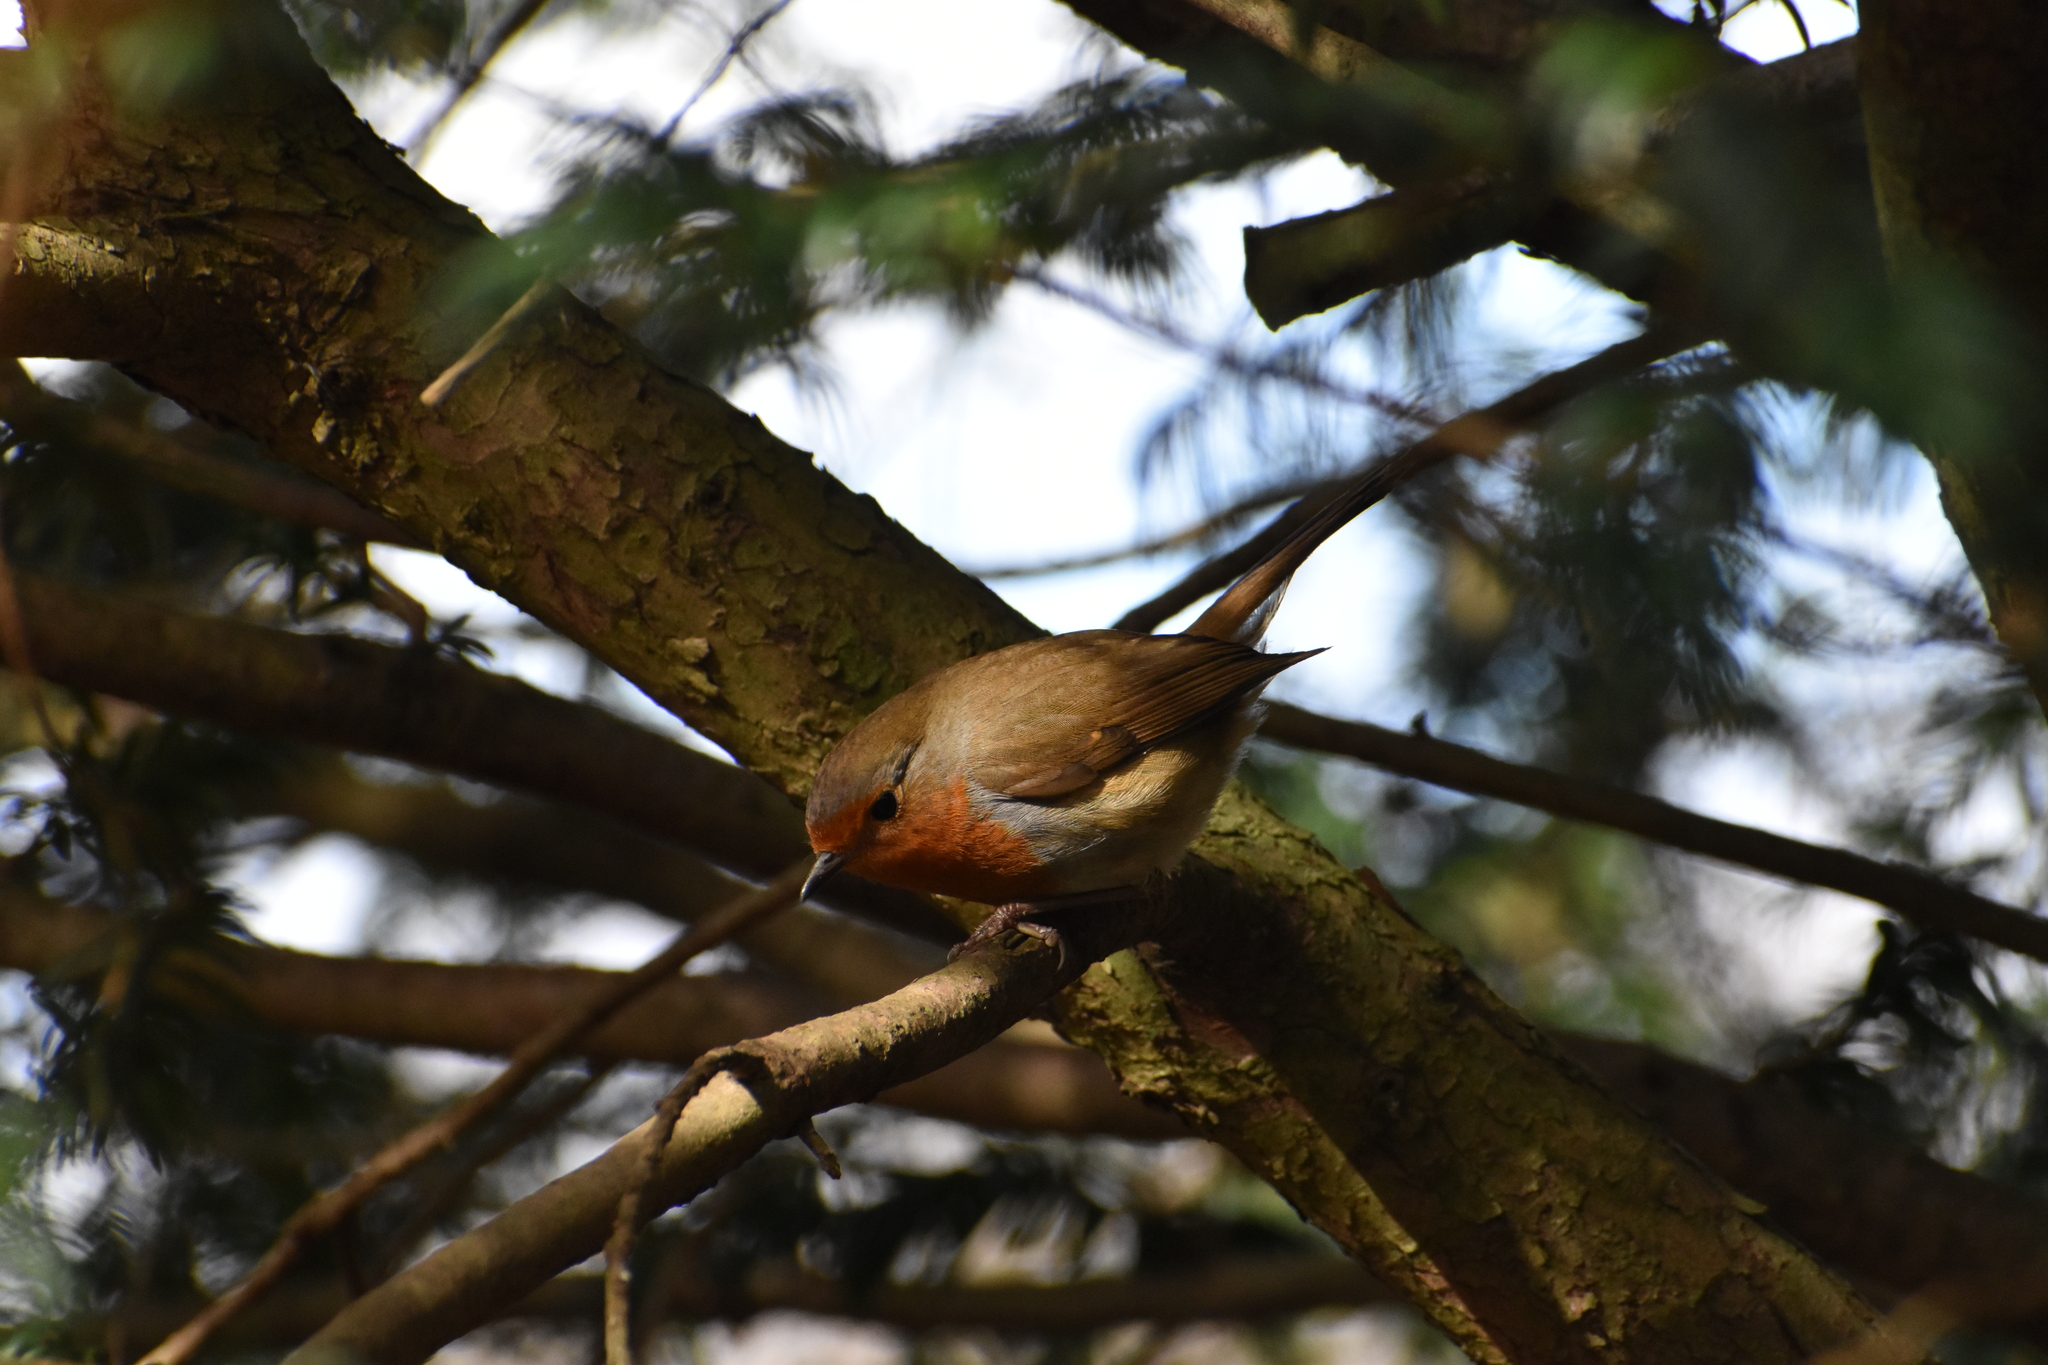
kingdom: Animalia
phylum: Chordata
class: Aves
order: Passeriformes
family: Muscicapidae
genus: Erithacus
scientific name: Erithacus rubecula
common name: European robin
